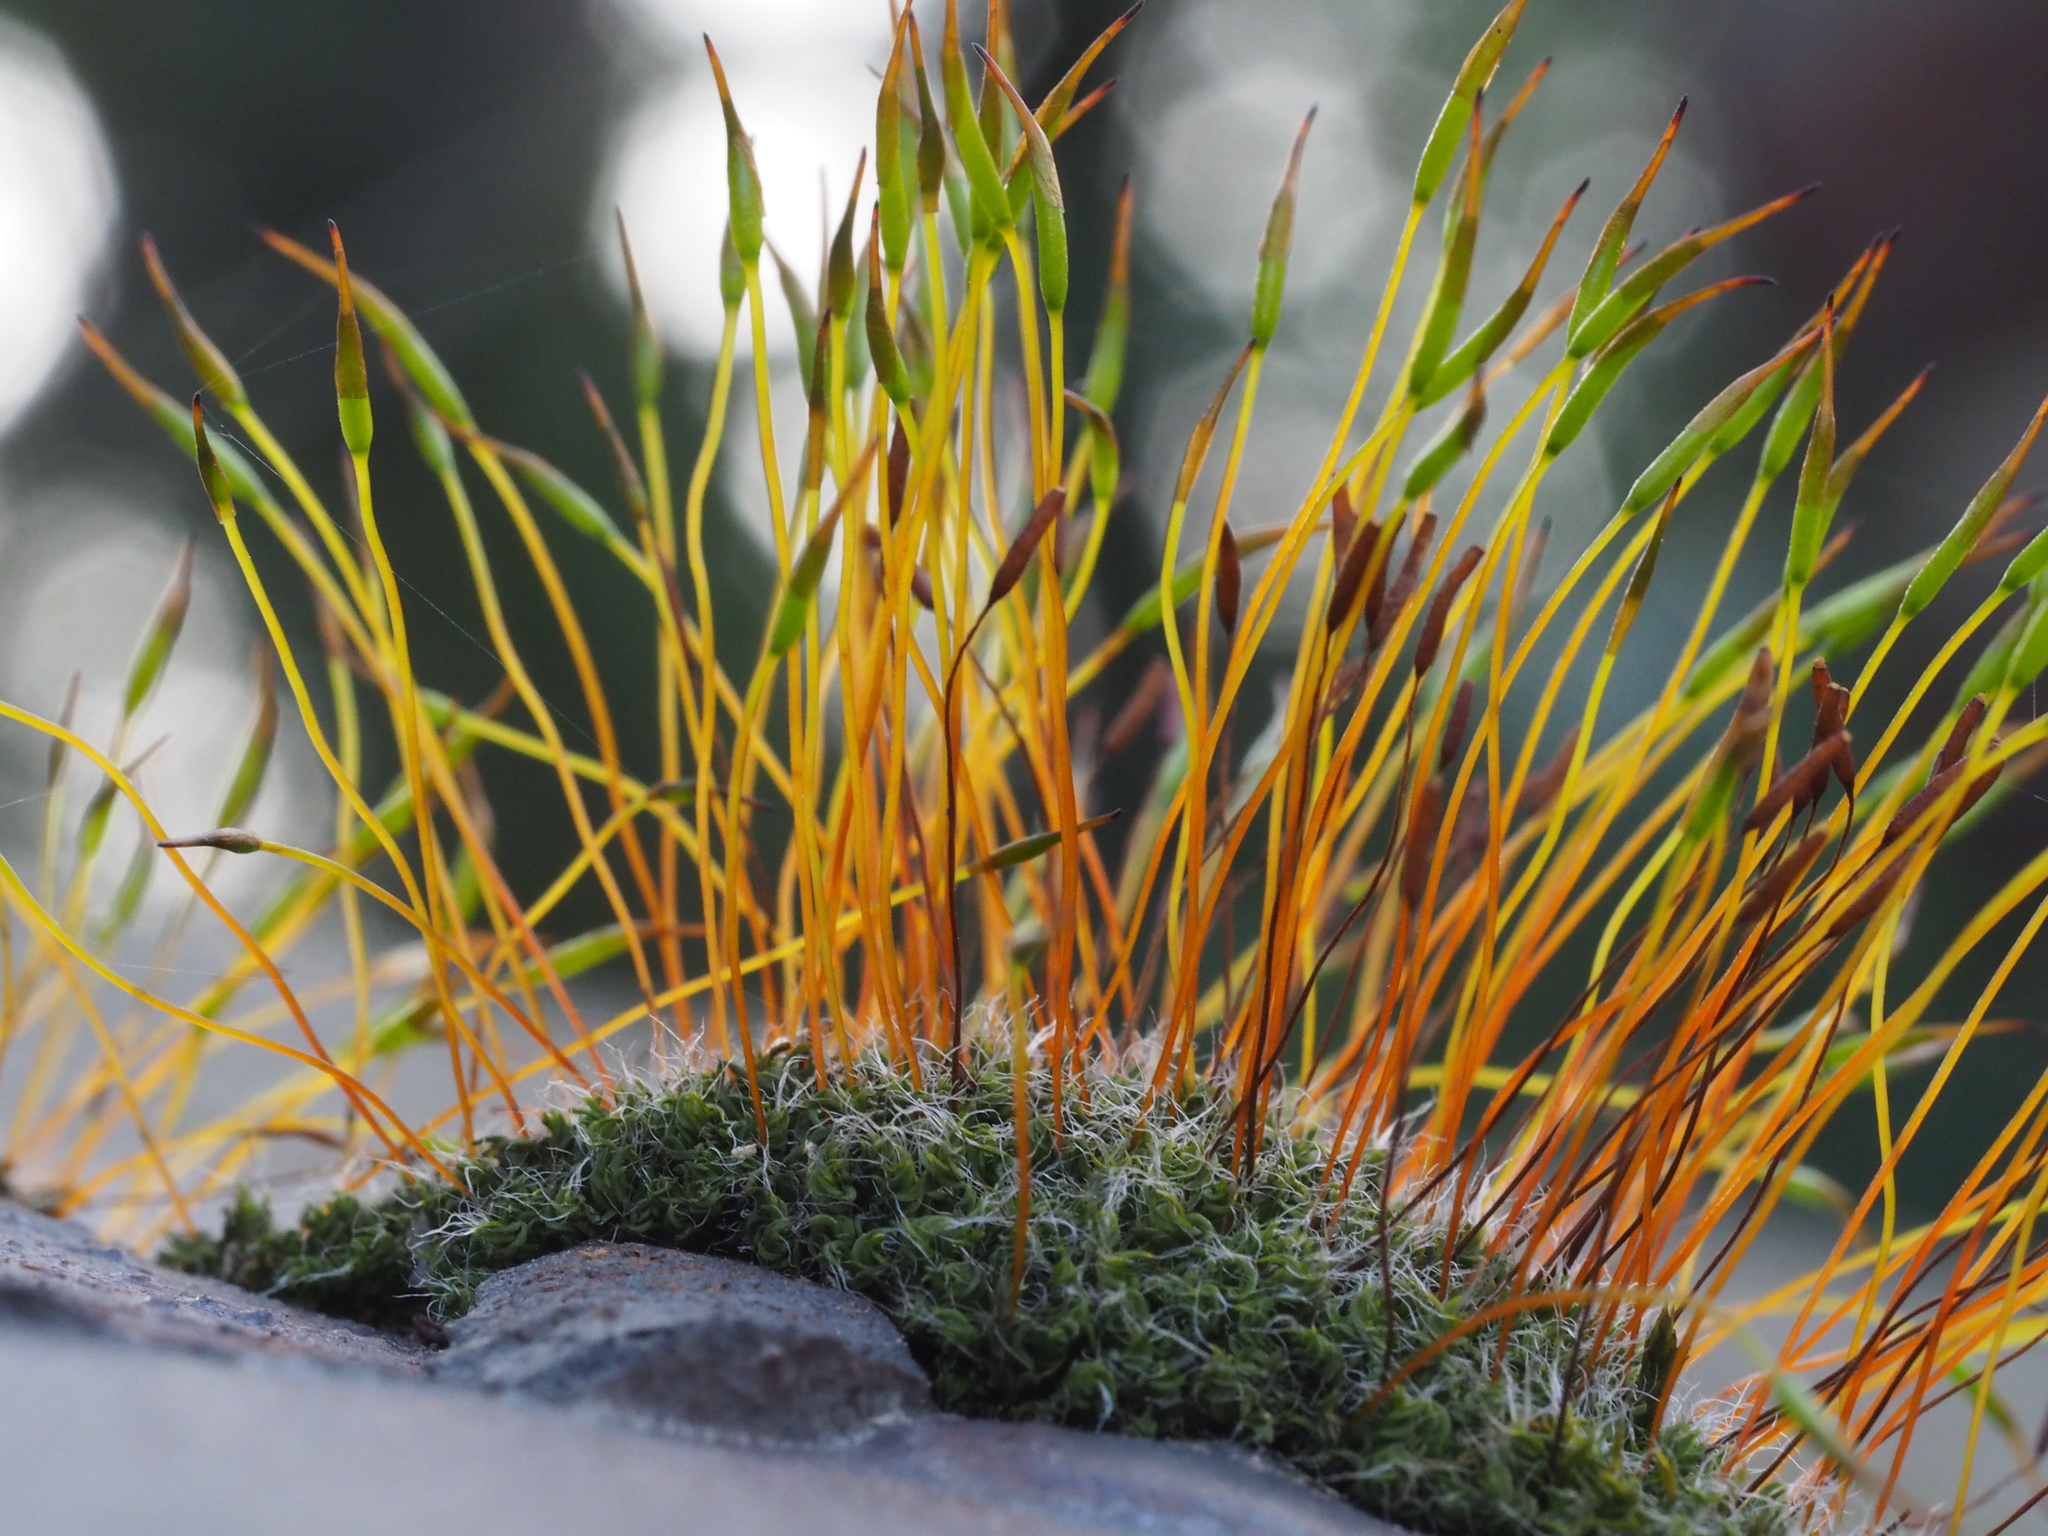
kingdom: Plantae
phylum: Bryophyta
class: Bryopsida
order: Pottiales
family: Pottiaceae
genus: Tortula
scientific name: Tortula muralis
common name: Wall screw-moss
